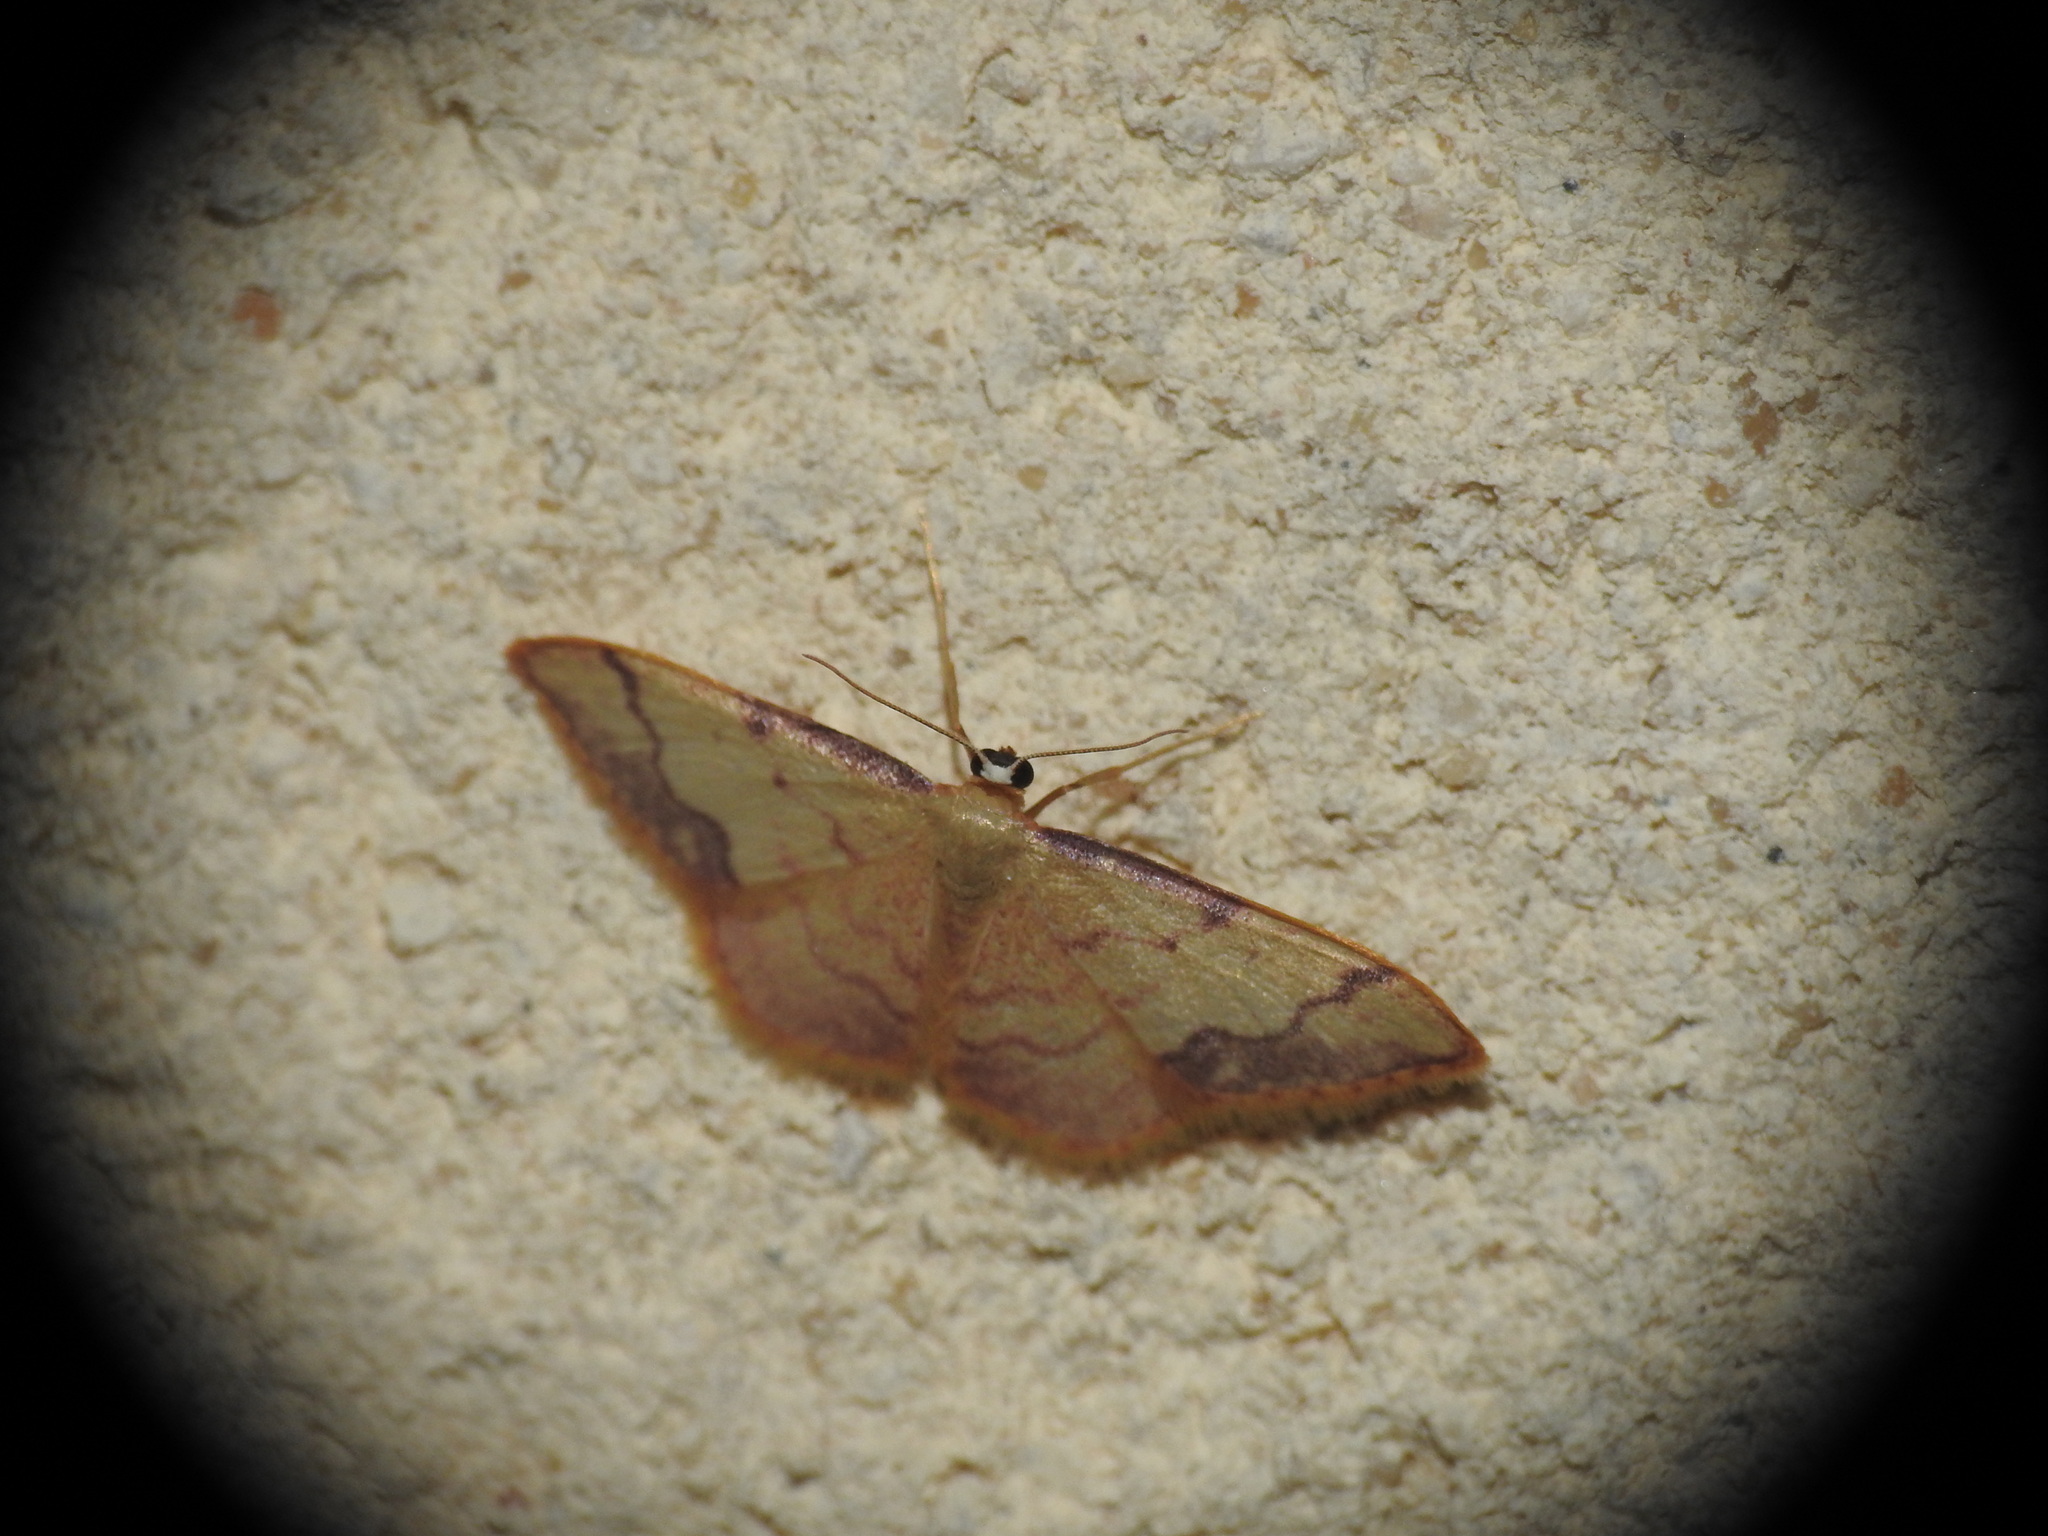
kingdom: Animalia
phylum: Arthropoda
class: Insecta
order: Lepidoptera
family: Geometridae
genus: Idaea
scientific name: Idaea ostrinaria
